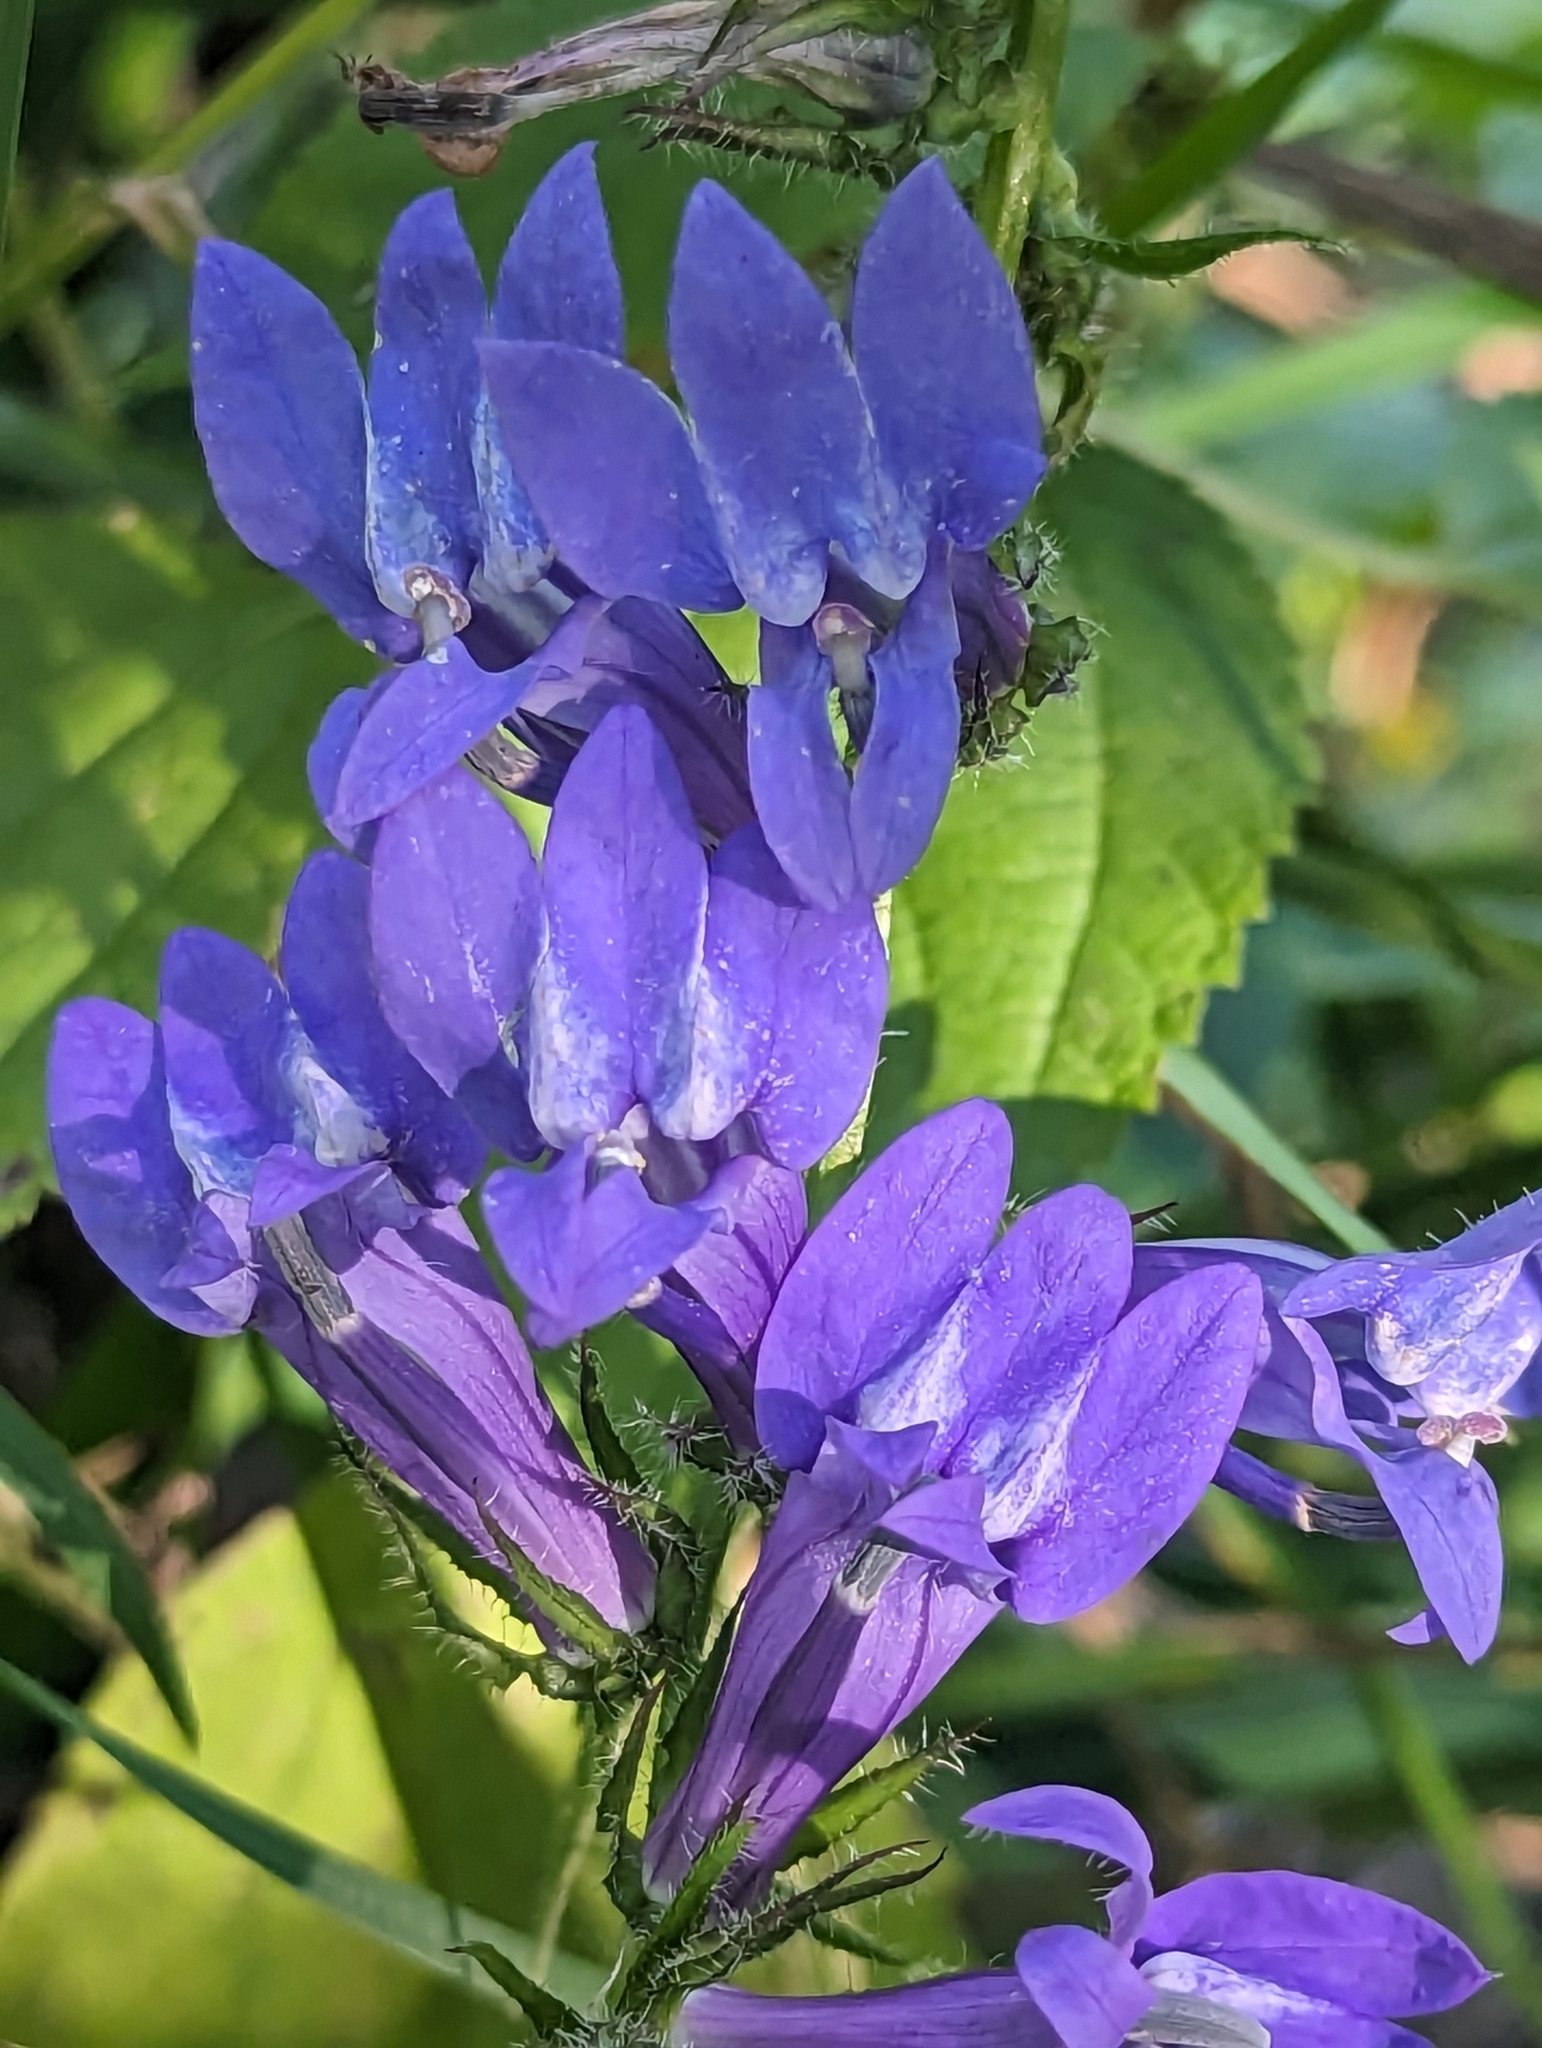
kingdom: Plantae
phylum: Tracheophyta
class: Magnoliopsida
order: Asterales
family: Campanulaceae
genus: Lobelia
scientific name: Lobelia siphilitica
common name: Great lobelia
